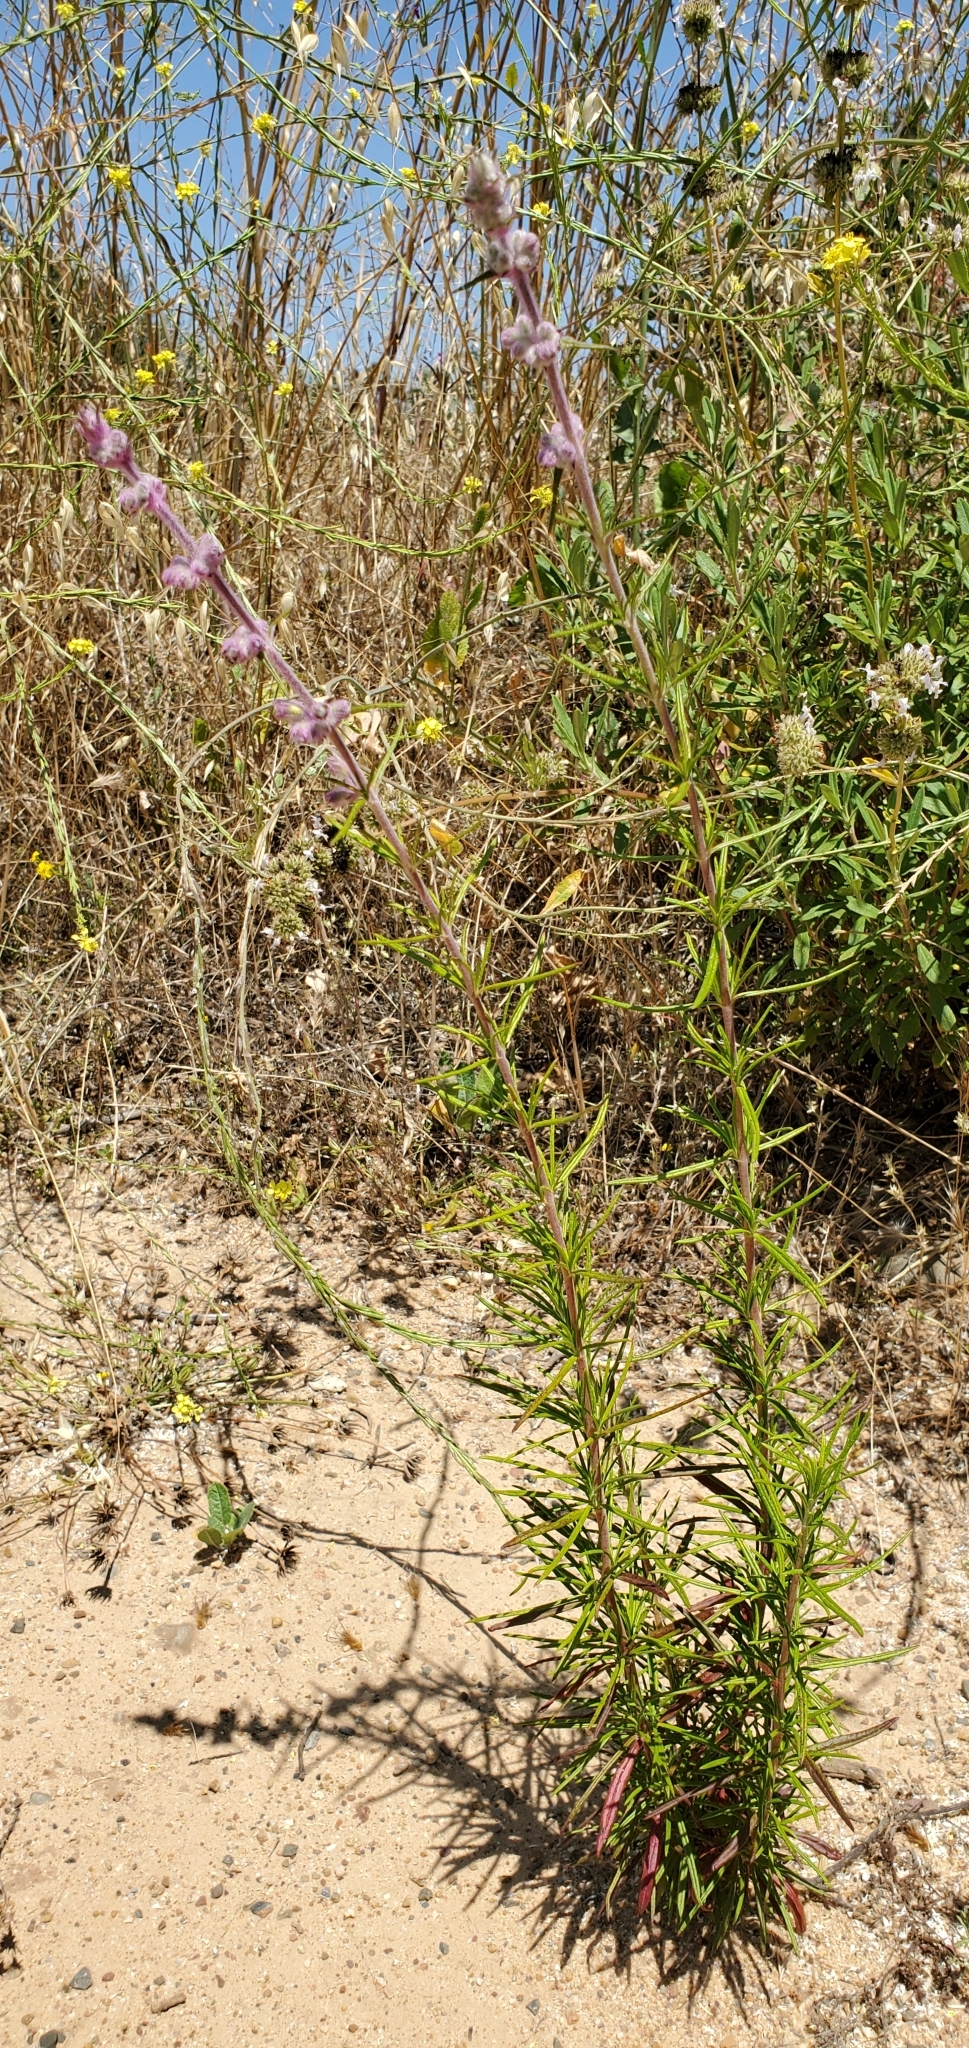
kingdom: Plantae
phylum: Tracheophyta
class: Magnoliopsida
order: Lamiales
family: Lamiaceae
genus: Trichostema
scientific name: Trichostema lanatum
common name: Woolly bluecurls
